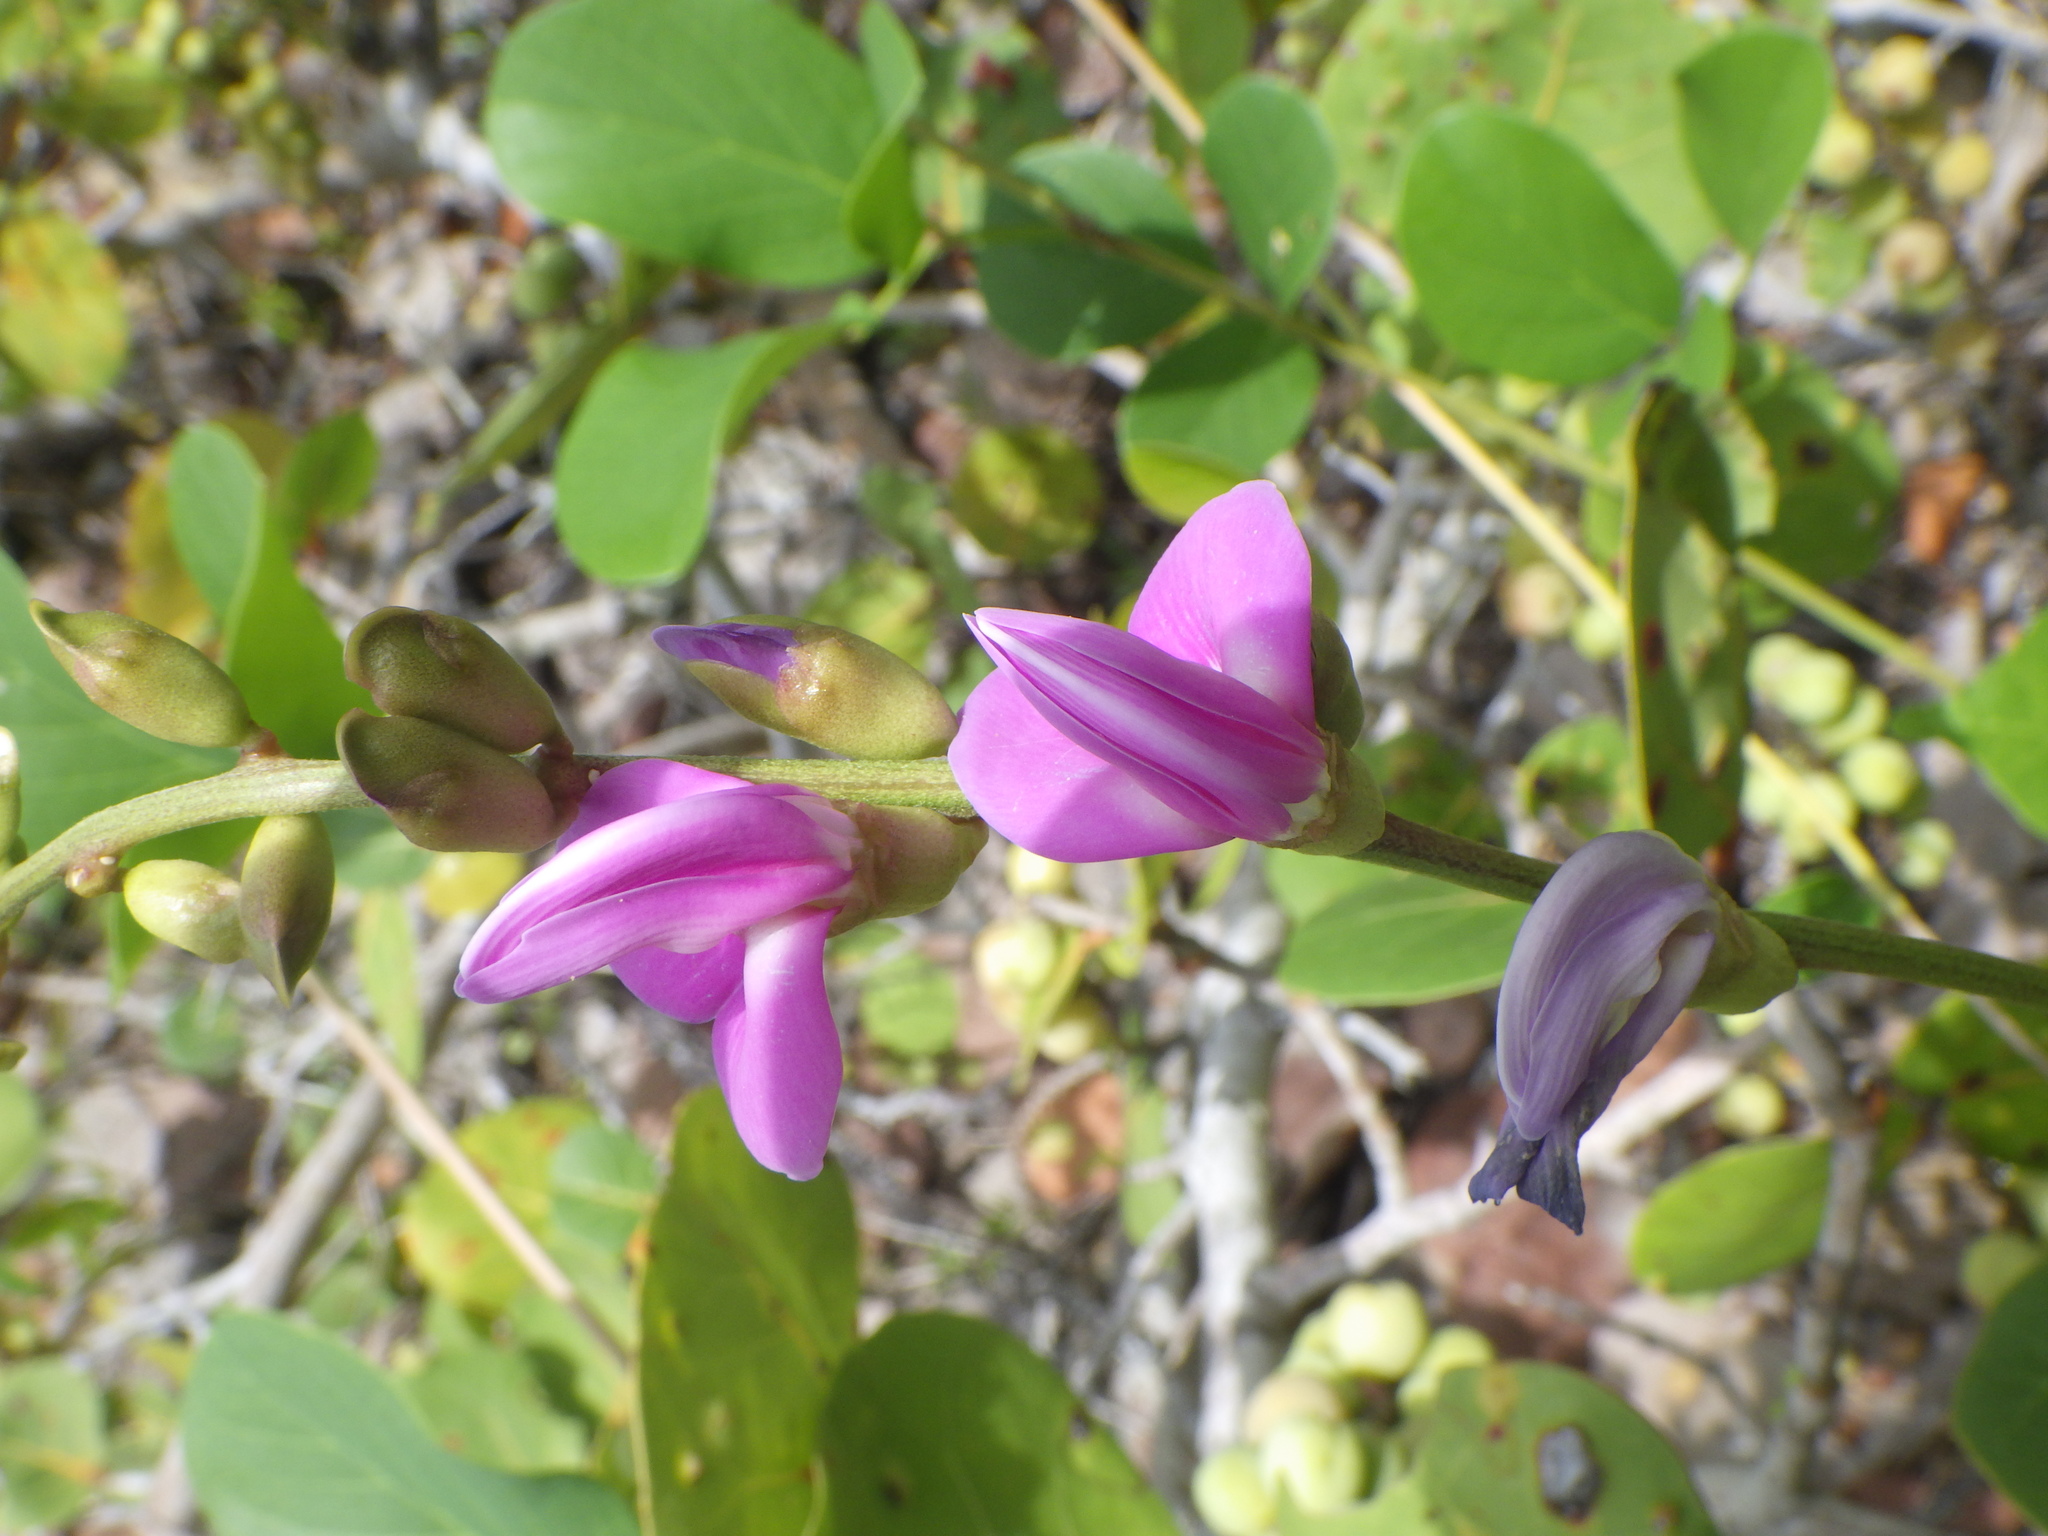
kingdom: Plantae
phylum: Tracheophyta
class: Magnoliopsida
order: Fabales
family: Fabaceae
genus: Canavalia
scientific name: Canavalia rosea
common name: Beach-bean
